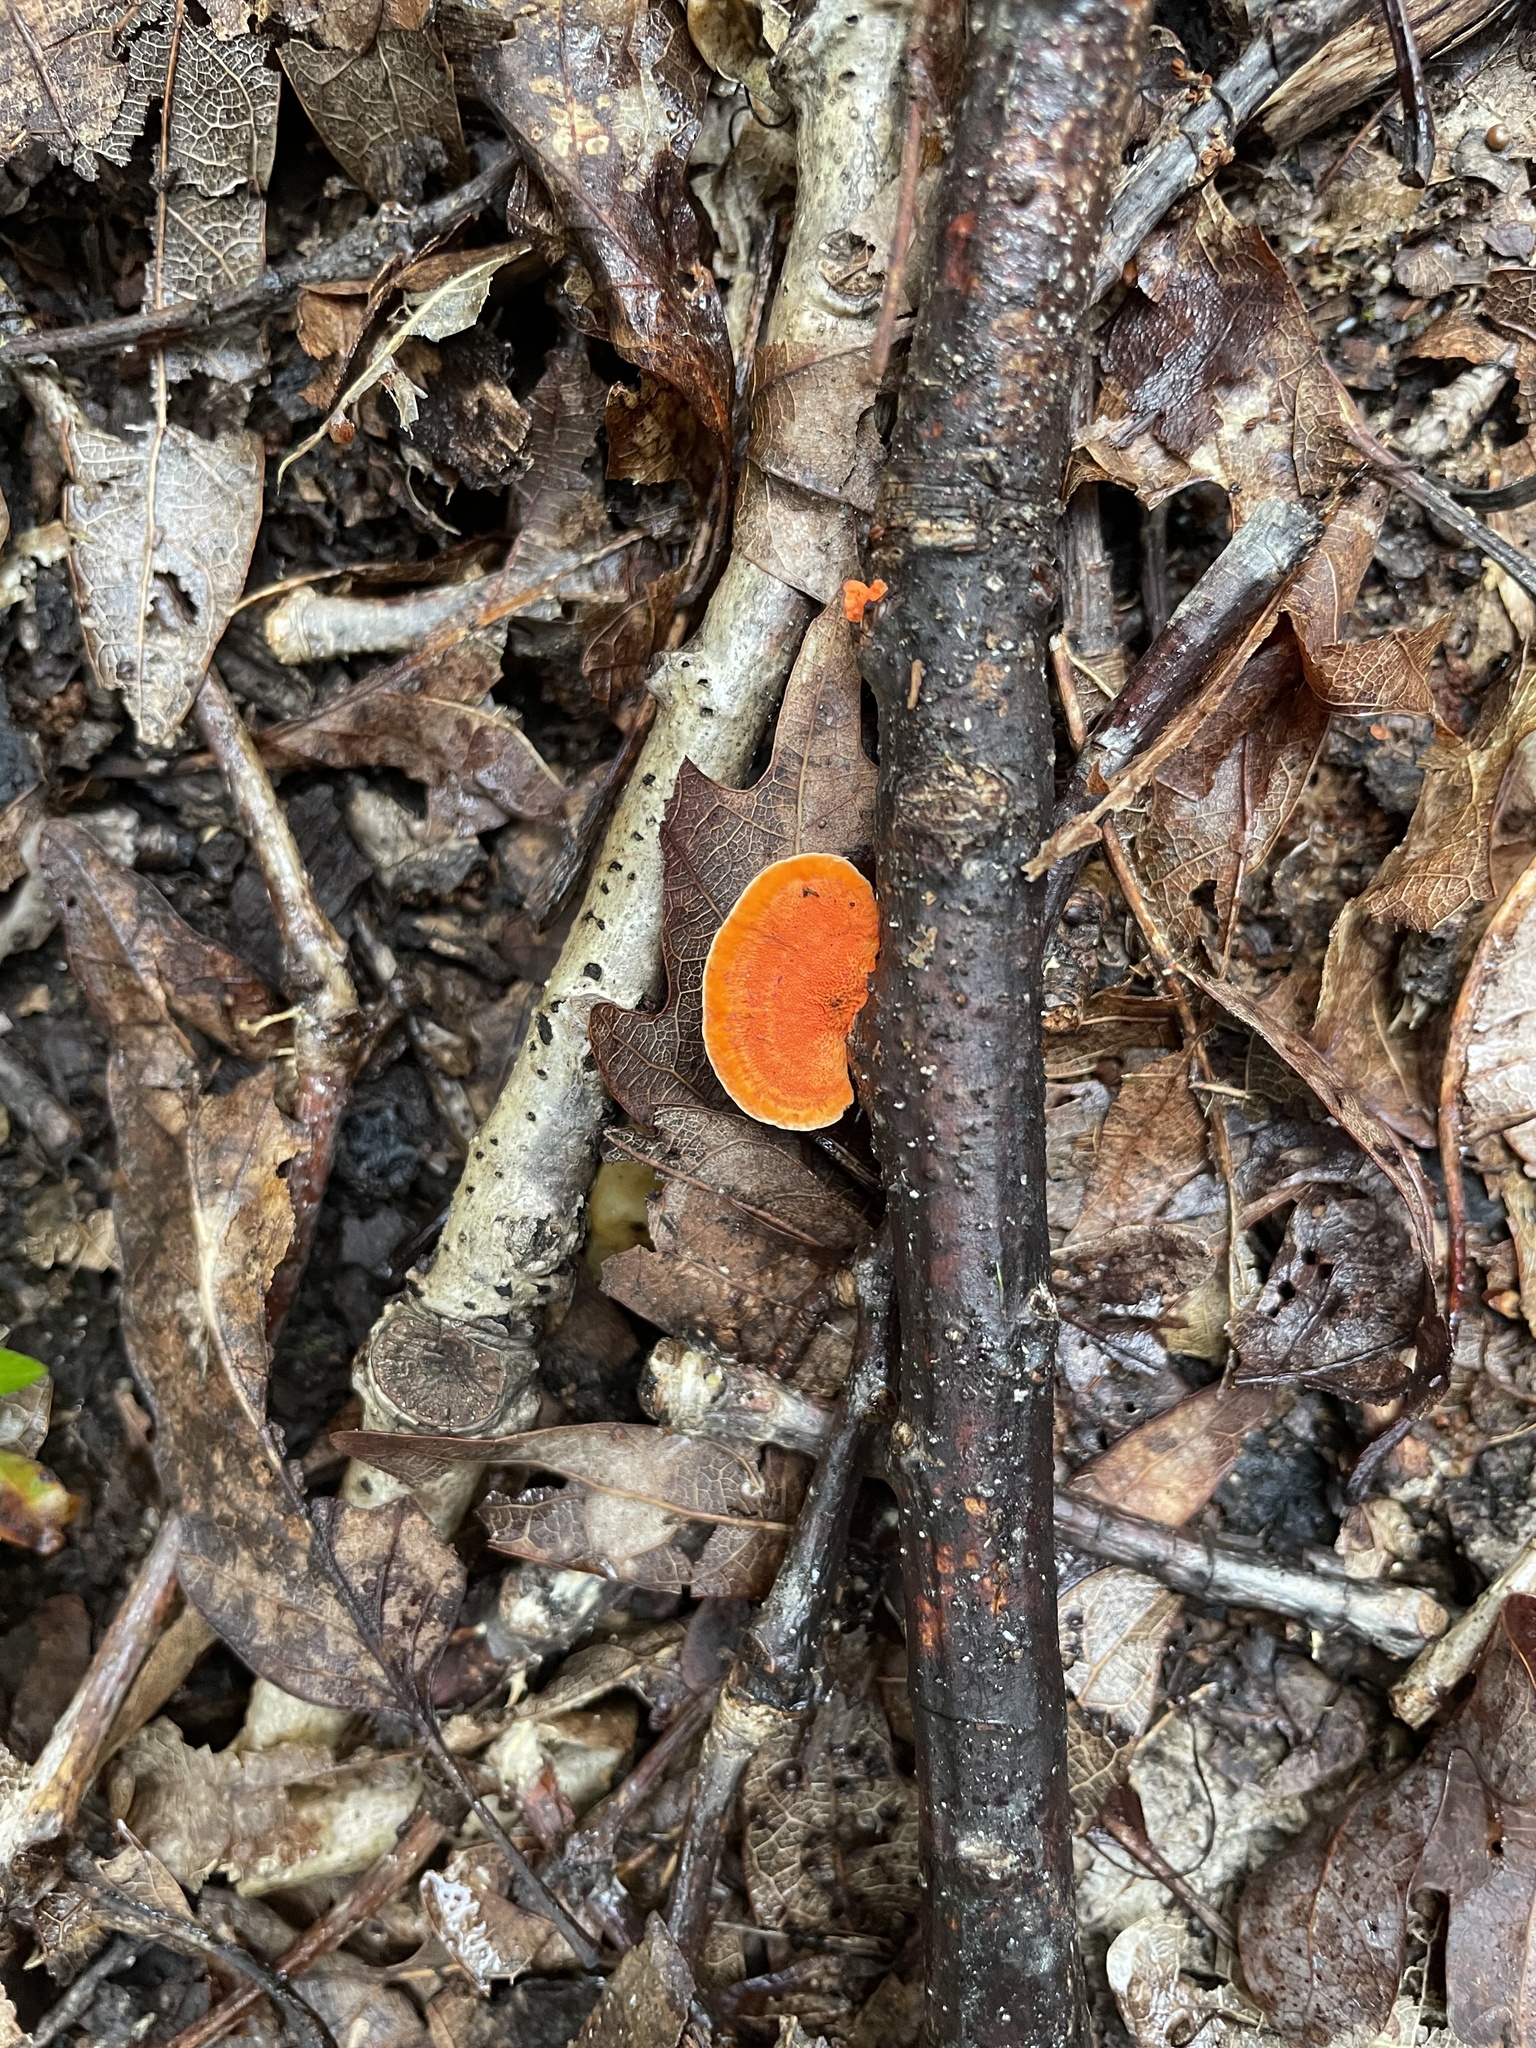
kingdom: Fungi
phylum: Basidiomycota
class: Agaricomycetes
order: Polyporales
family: Polyporaceae
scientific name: Polyporaceae
